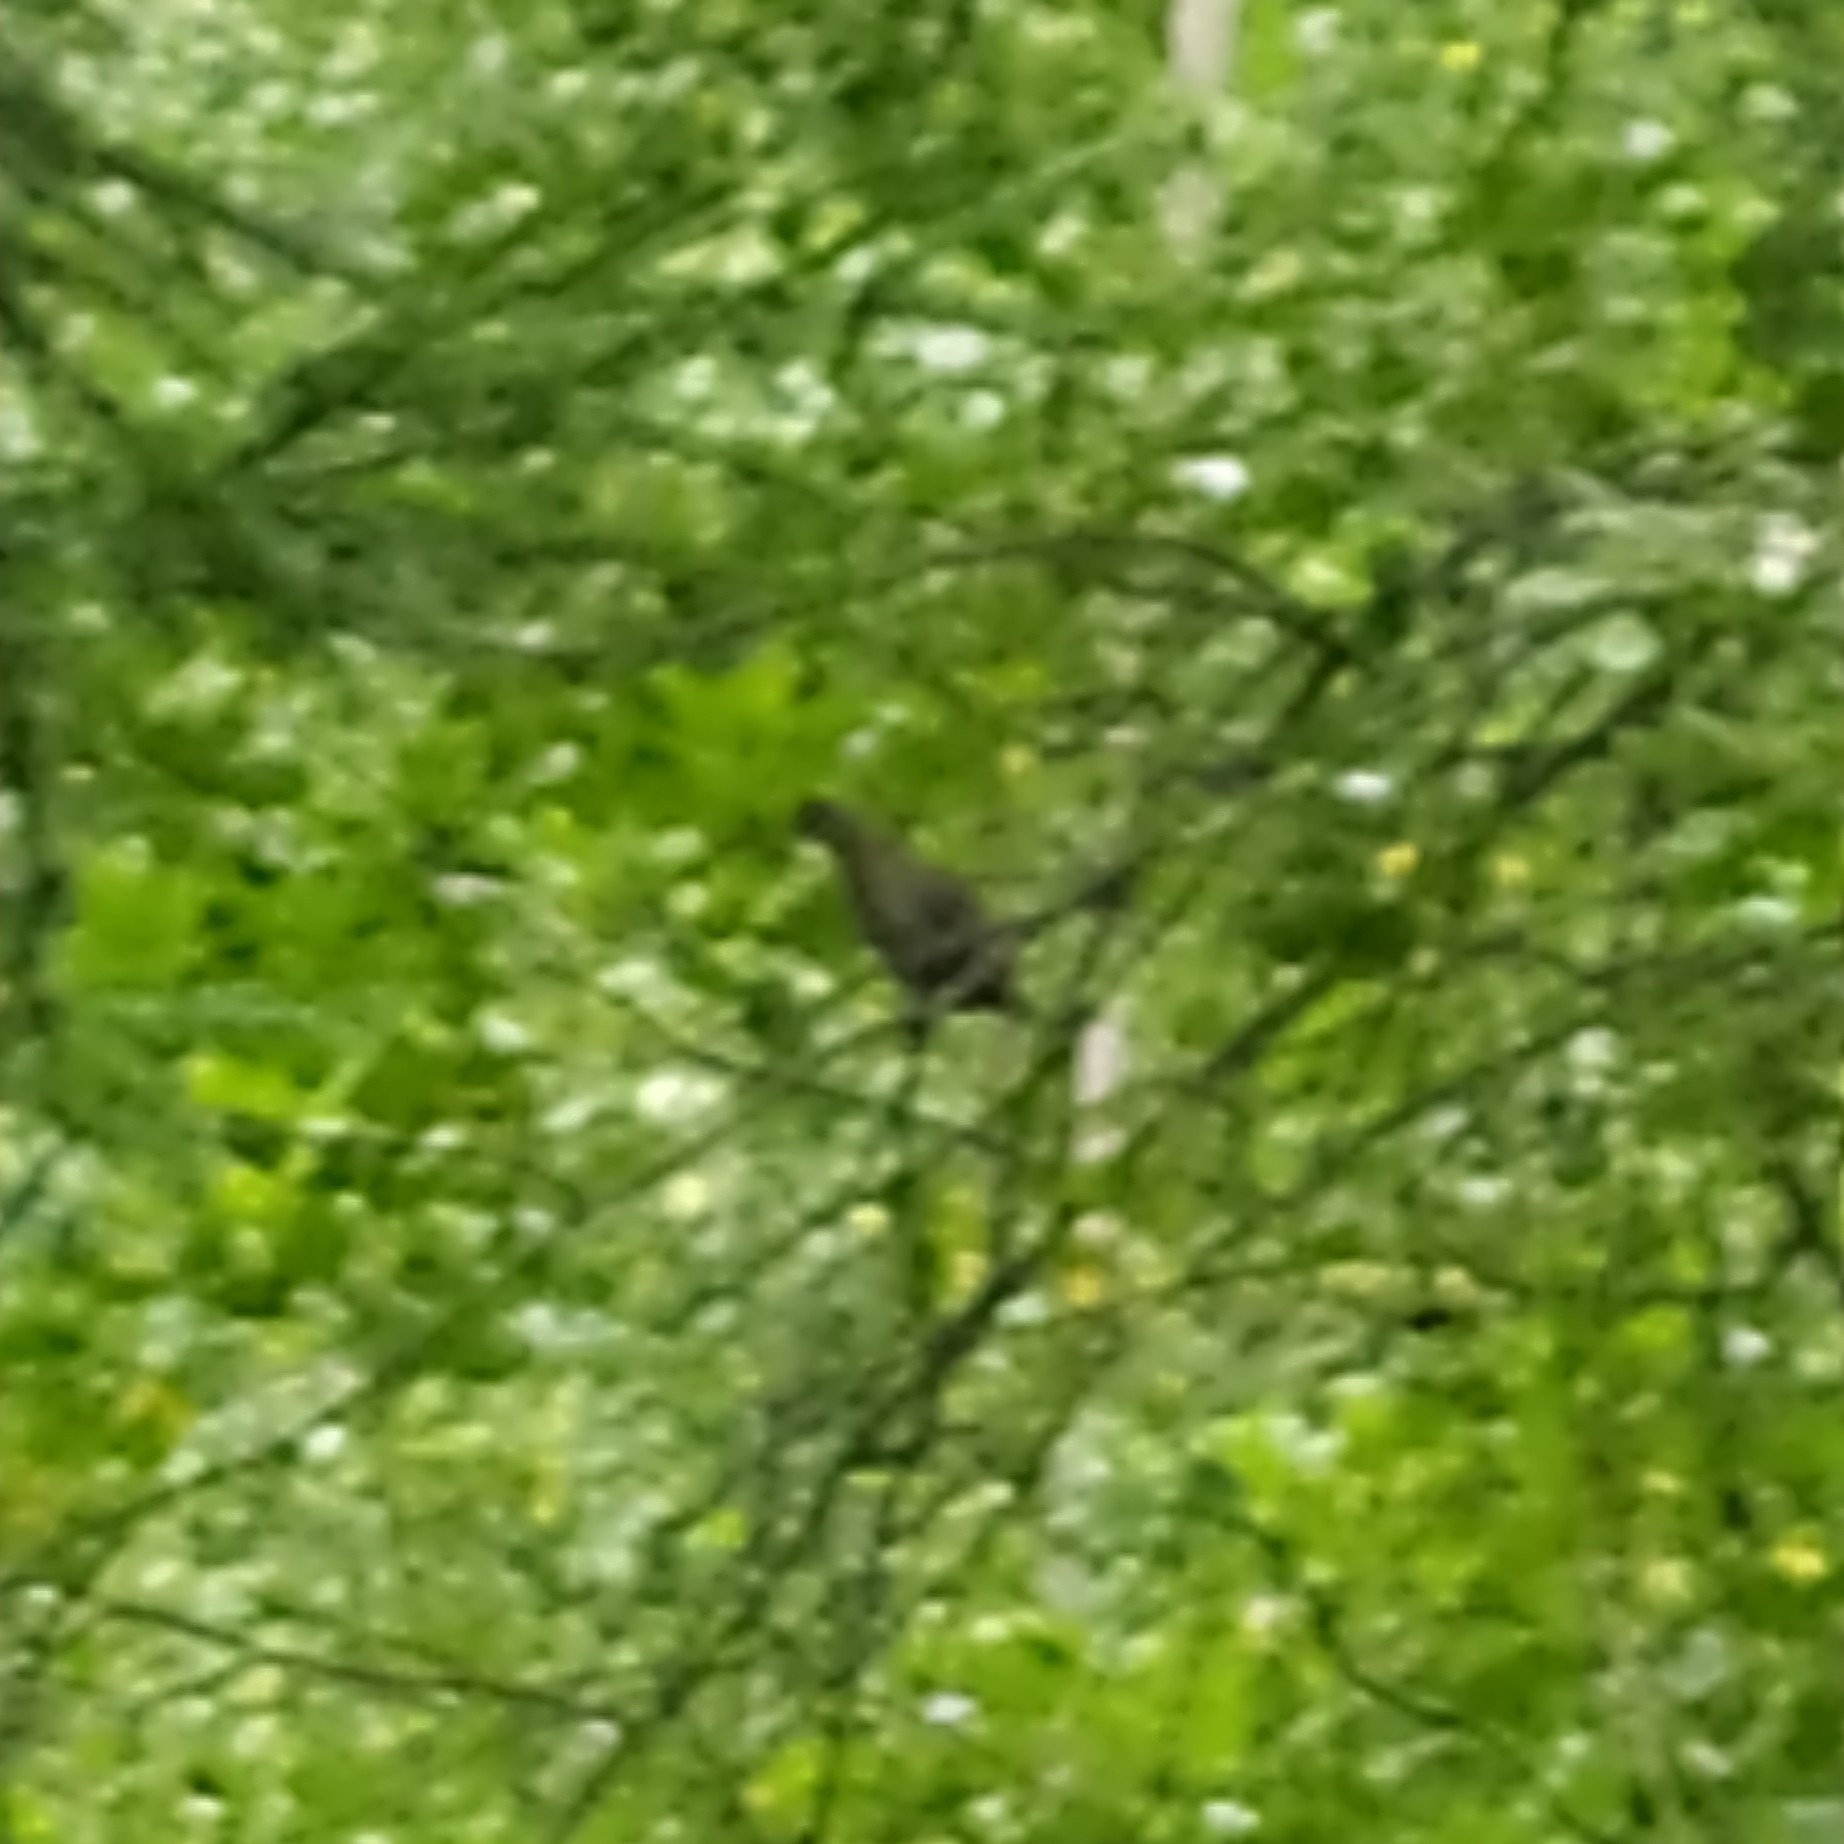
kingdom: Animalia
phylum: Chordata
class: Aves
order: Galliformes
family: Phasianidae
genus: Tetrastes
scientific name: Tetrastes bonasia
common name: Hazel grouse
